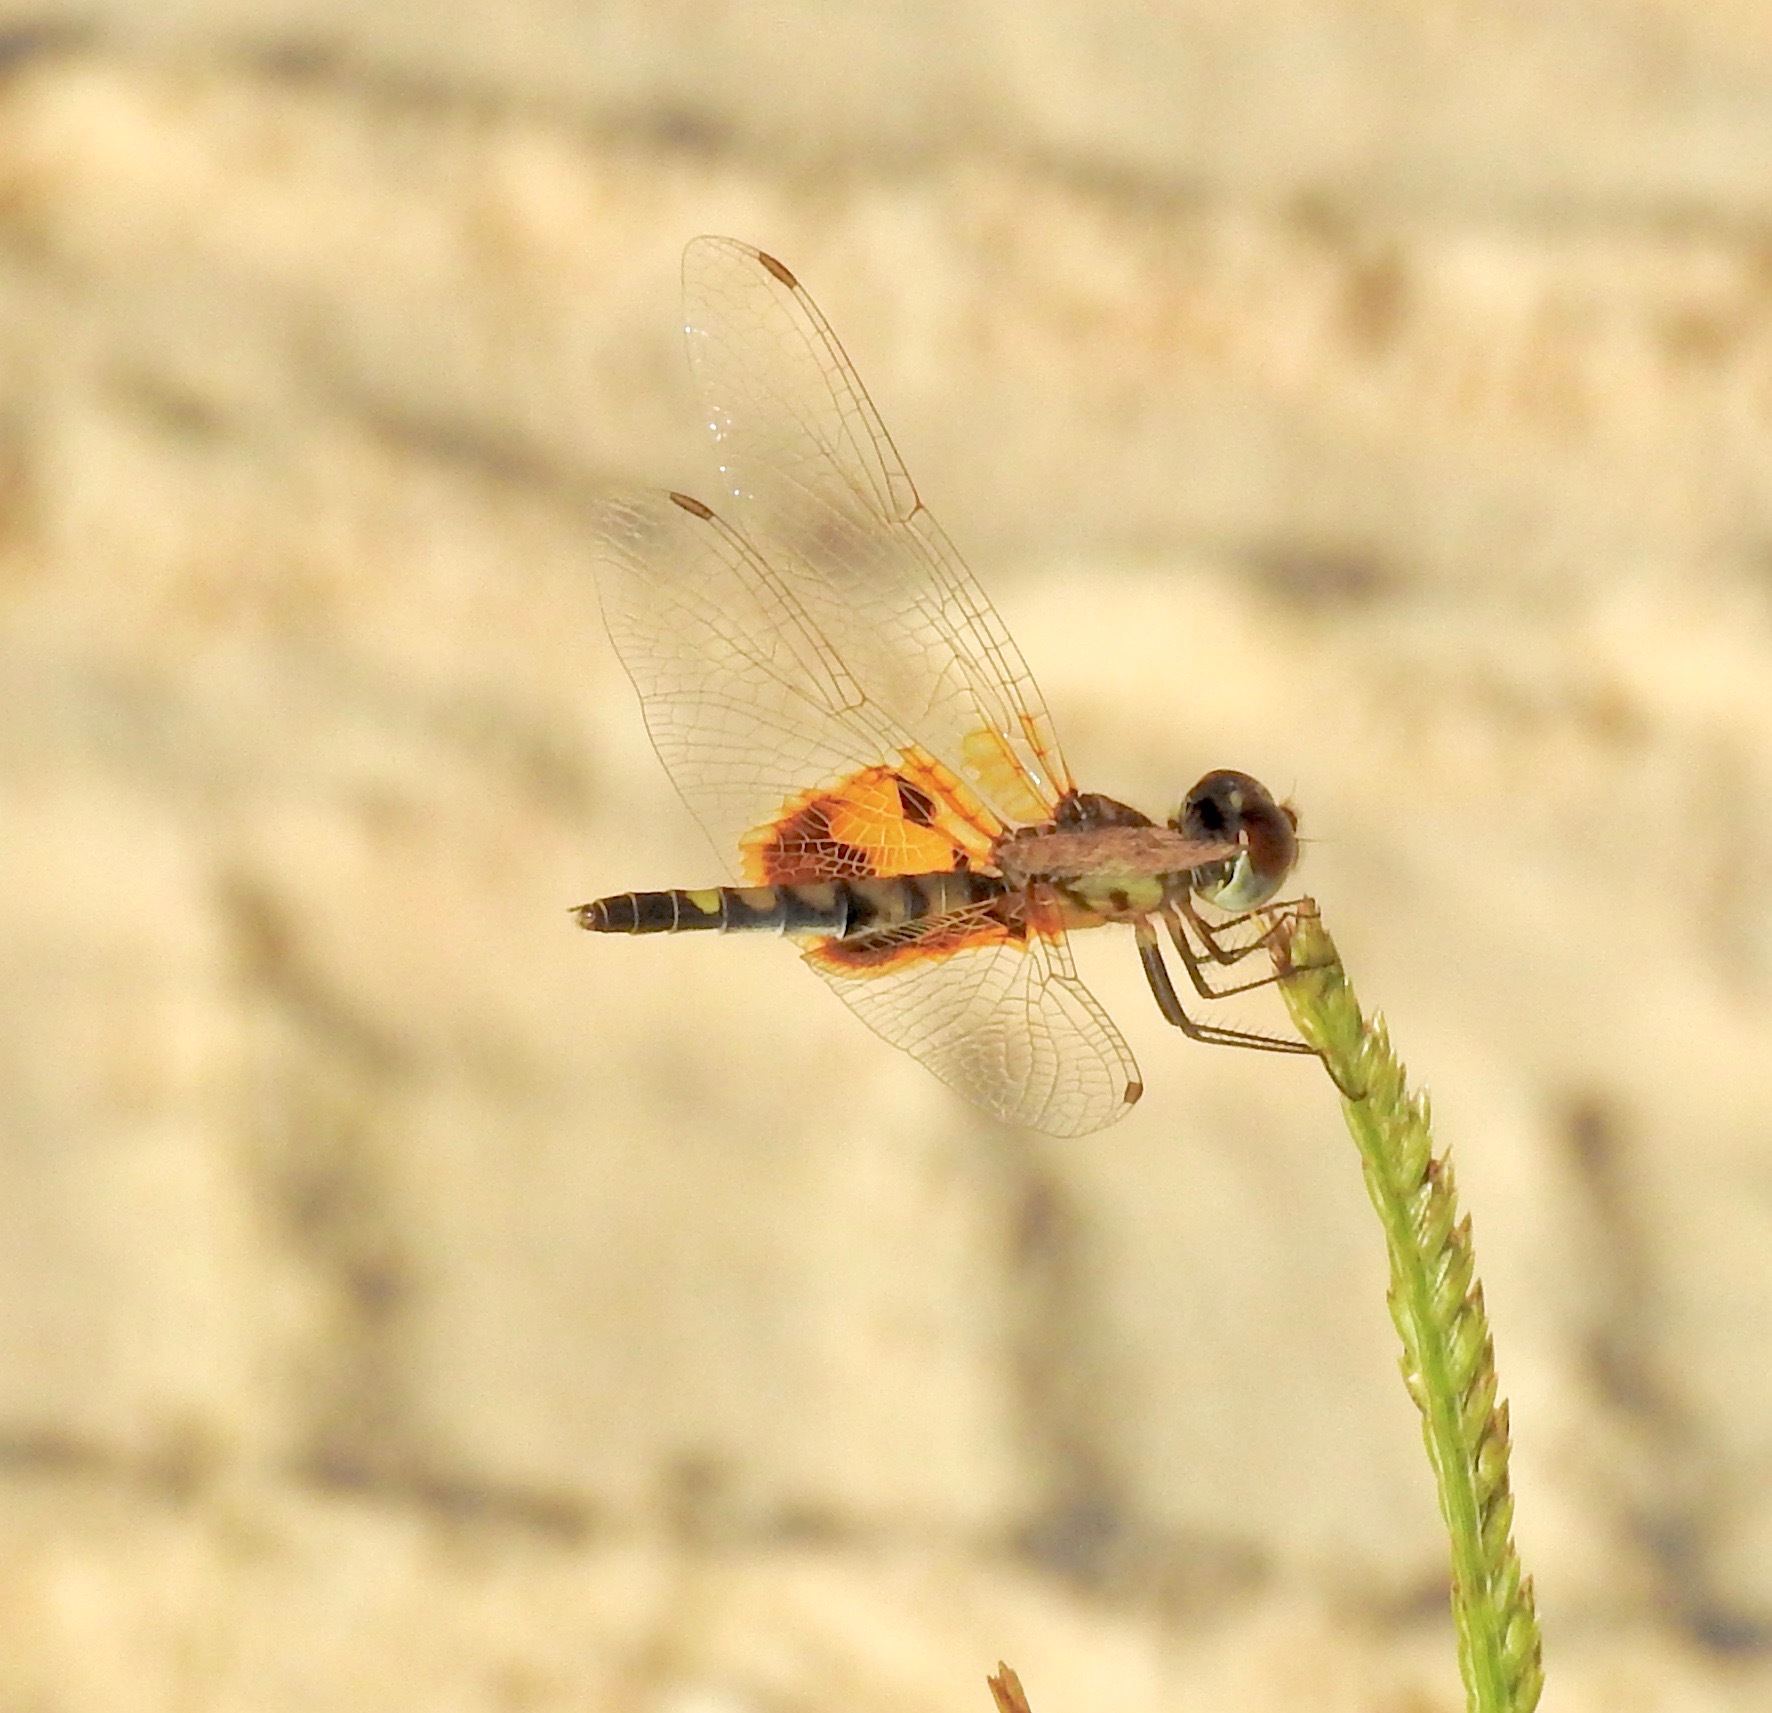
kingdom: Animalia
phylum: Arthropoda
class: Insecta
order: Odonata
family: Libellulidae
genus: Celithemis
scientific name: Celithemis amanda
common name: Amanda's pennant
